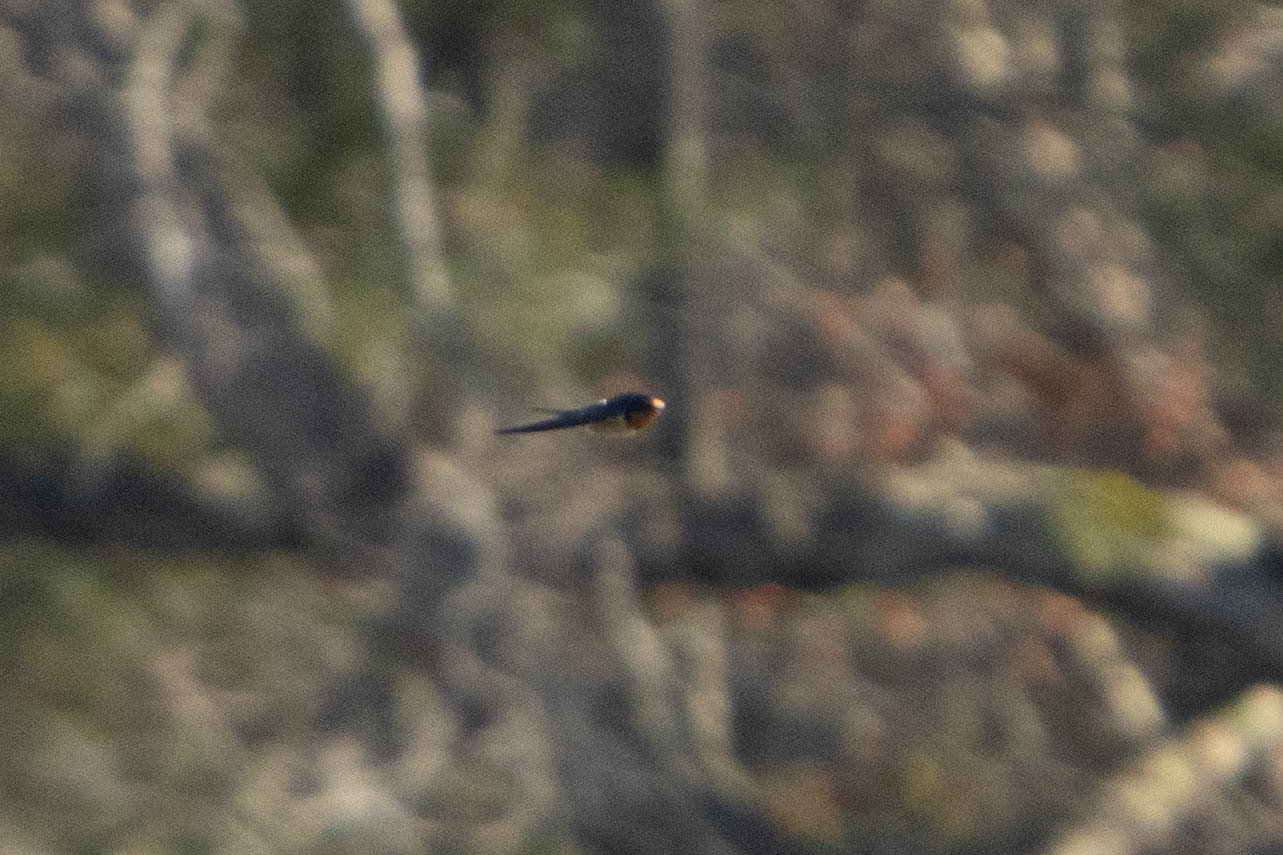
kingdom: Animalia
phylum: Chordata
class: Aves
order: Passeriformes
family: Hirundinidae
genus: Hirundo
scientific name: Hirundo rustica
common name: Barn swallow
